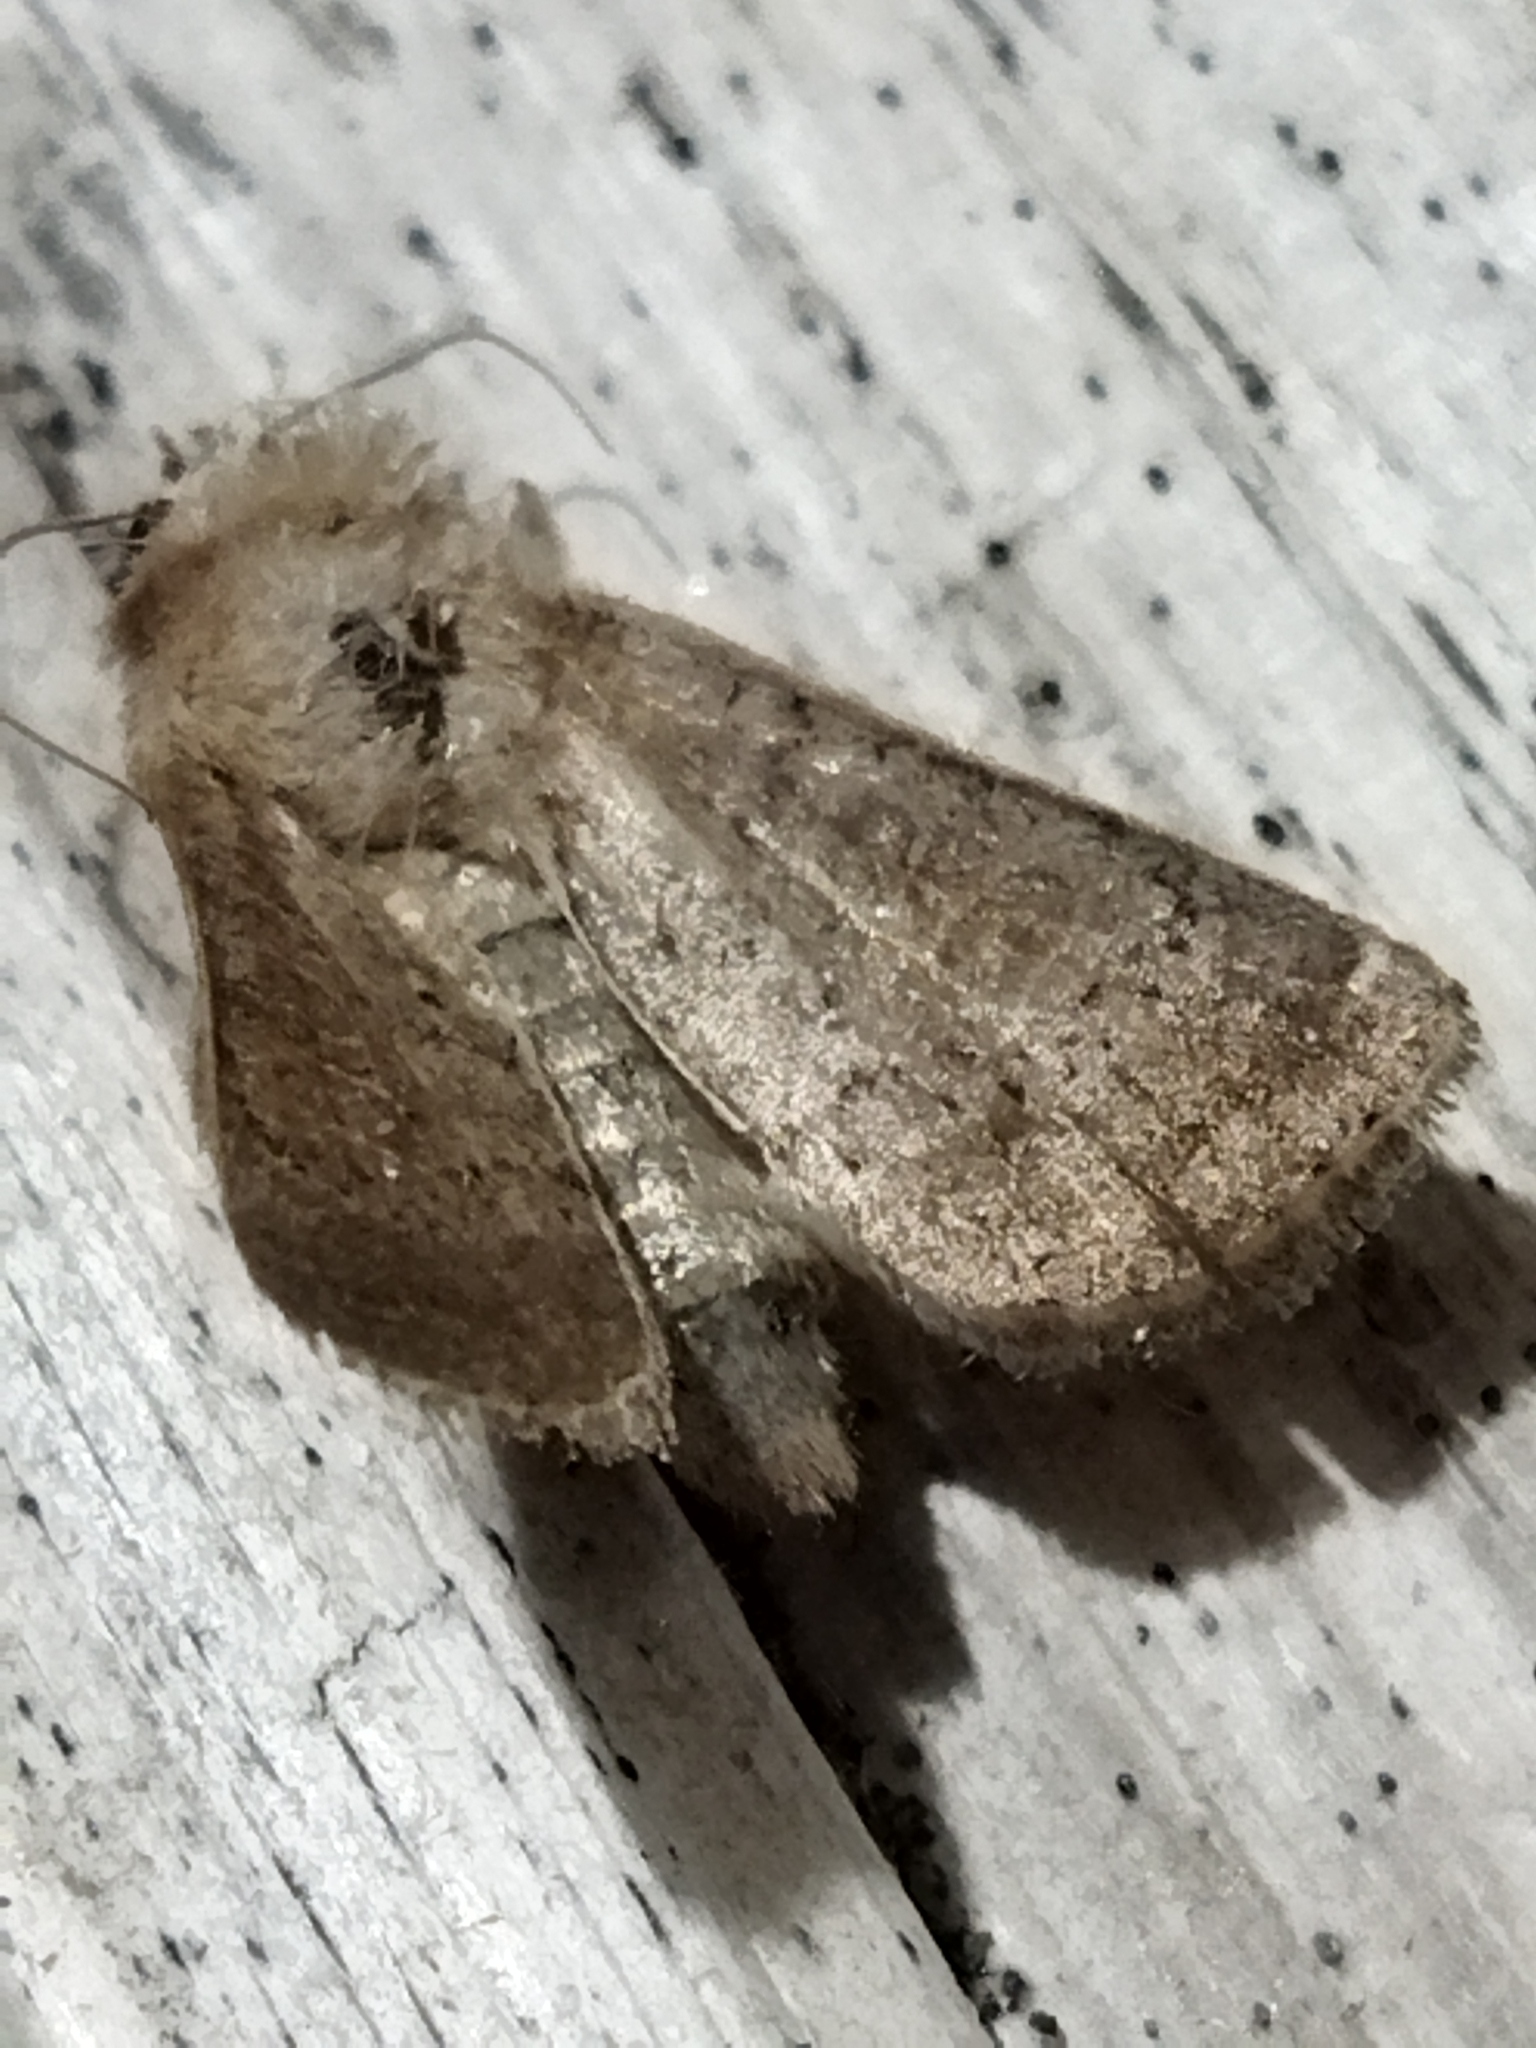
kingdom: Animalia
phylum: Arthropoda
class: Insecta
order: Lepidoptera
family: Noctuidae
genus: Hoplodrina
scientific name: Hoplodrina ambigua
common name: Vine's rustic
